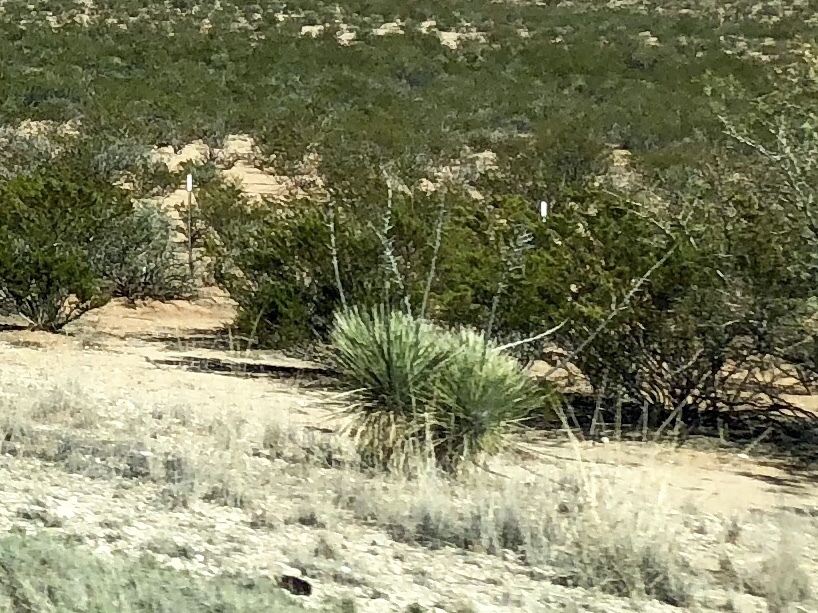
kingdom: Plantae
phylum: Tracheophyta
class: Liliopsida
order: Asparagales
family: Asparagaceae
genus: Yucca
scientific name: Yucca elata
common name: Palmella
